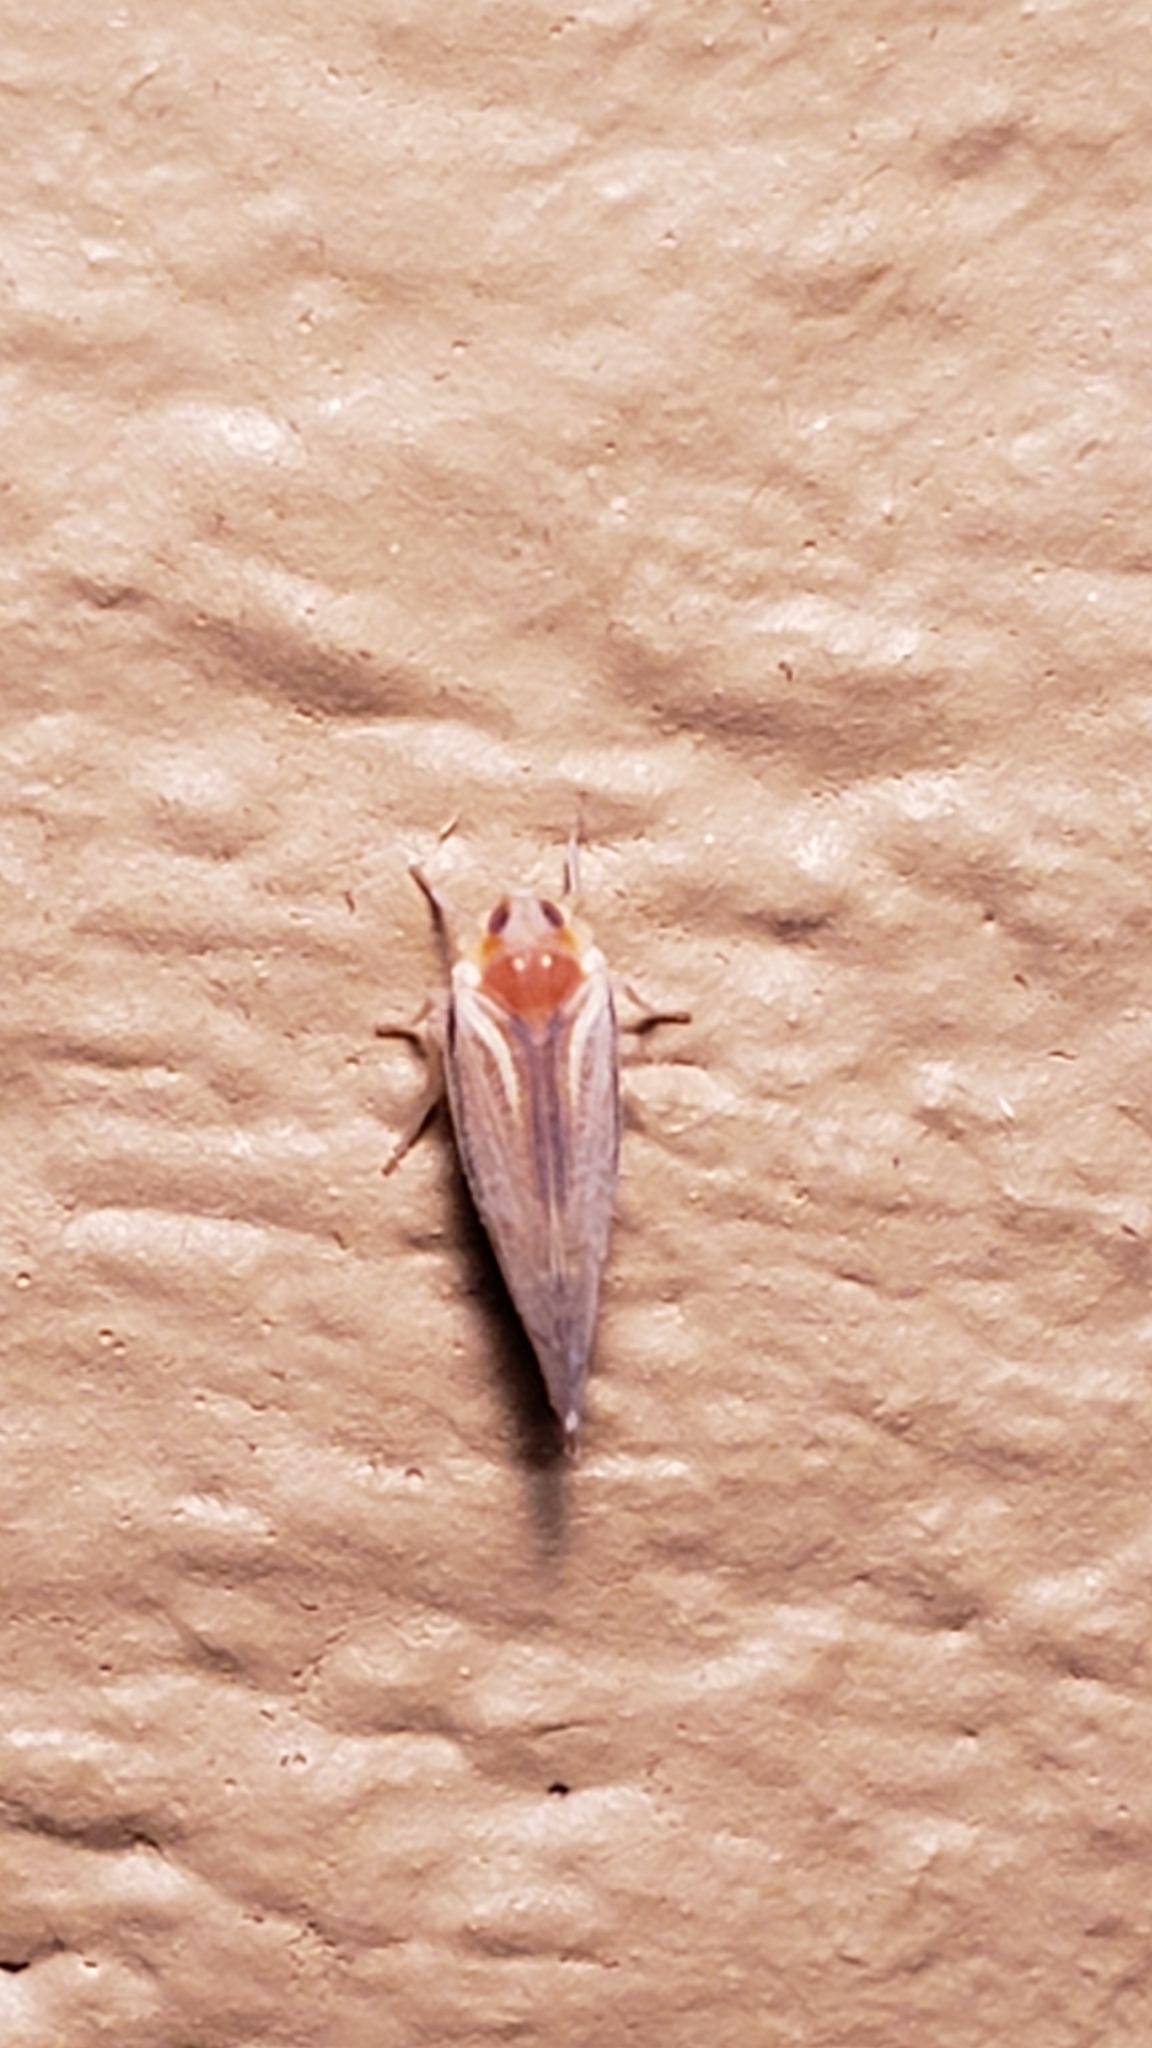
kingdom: Animalia
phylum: Arthropoda
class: Insecta
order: Hemiptera
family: Derbidae
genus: Omolicna
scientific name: Omolicna uhleri
